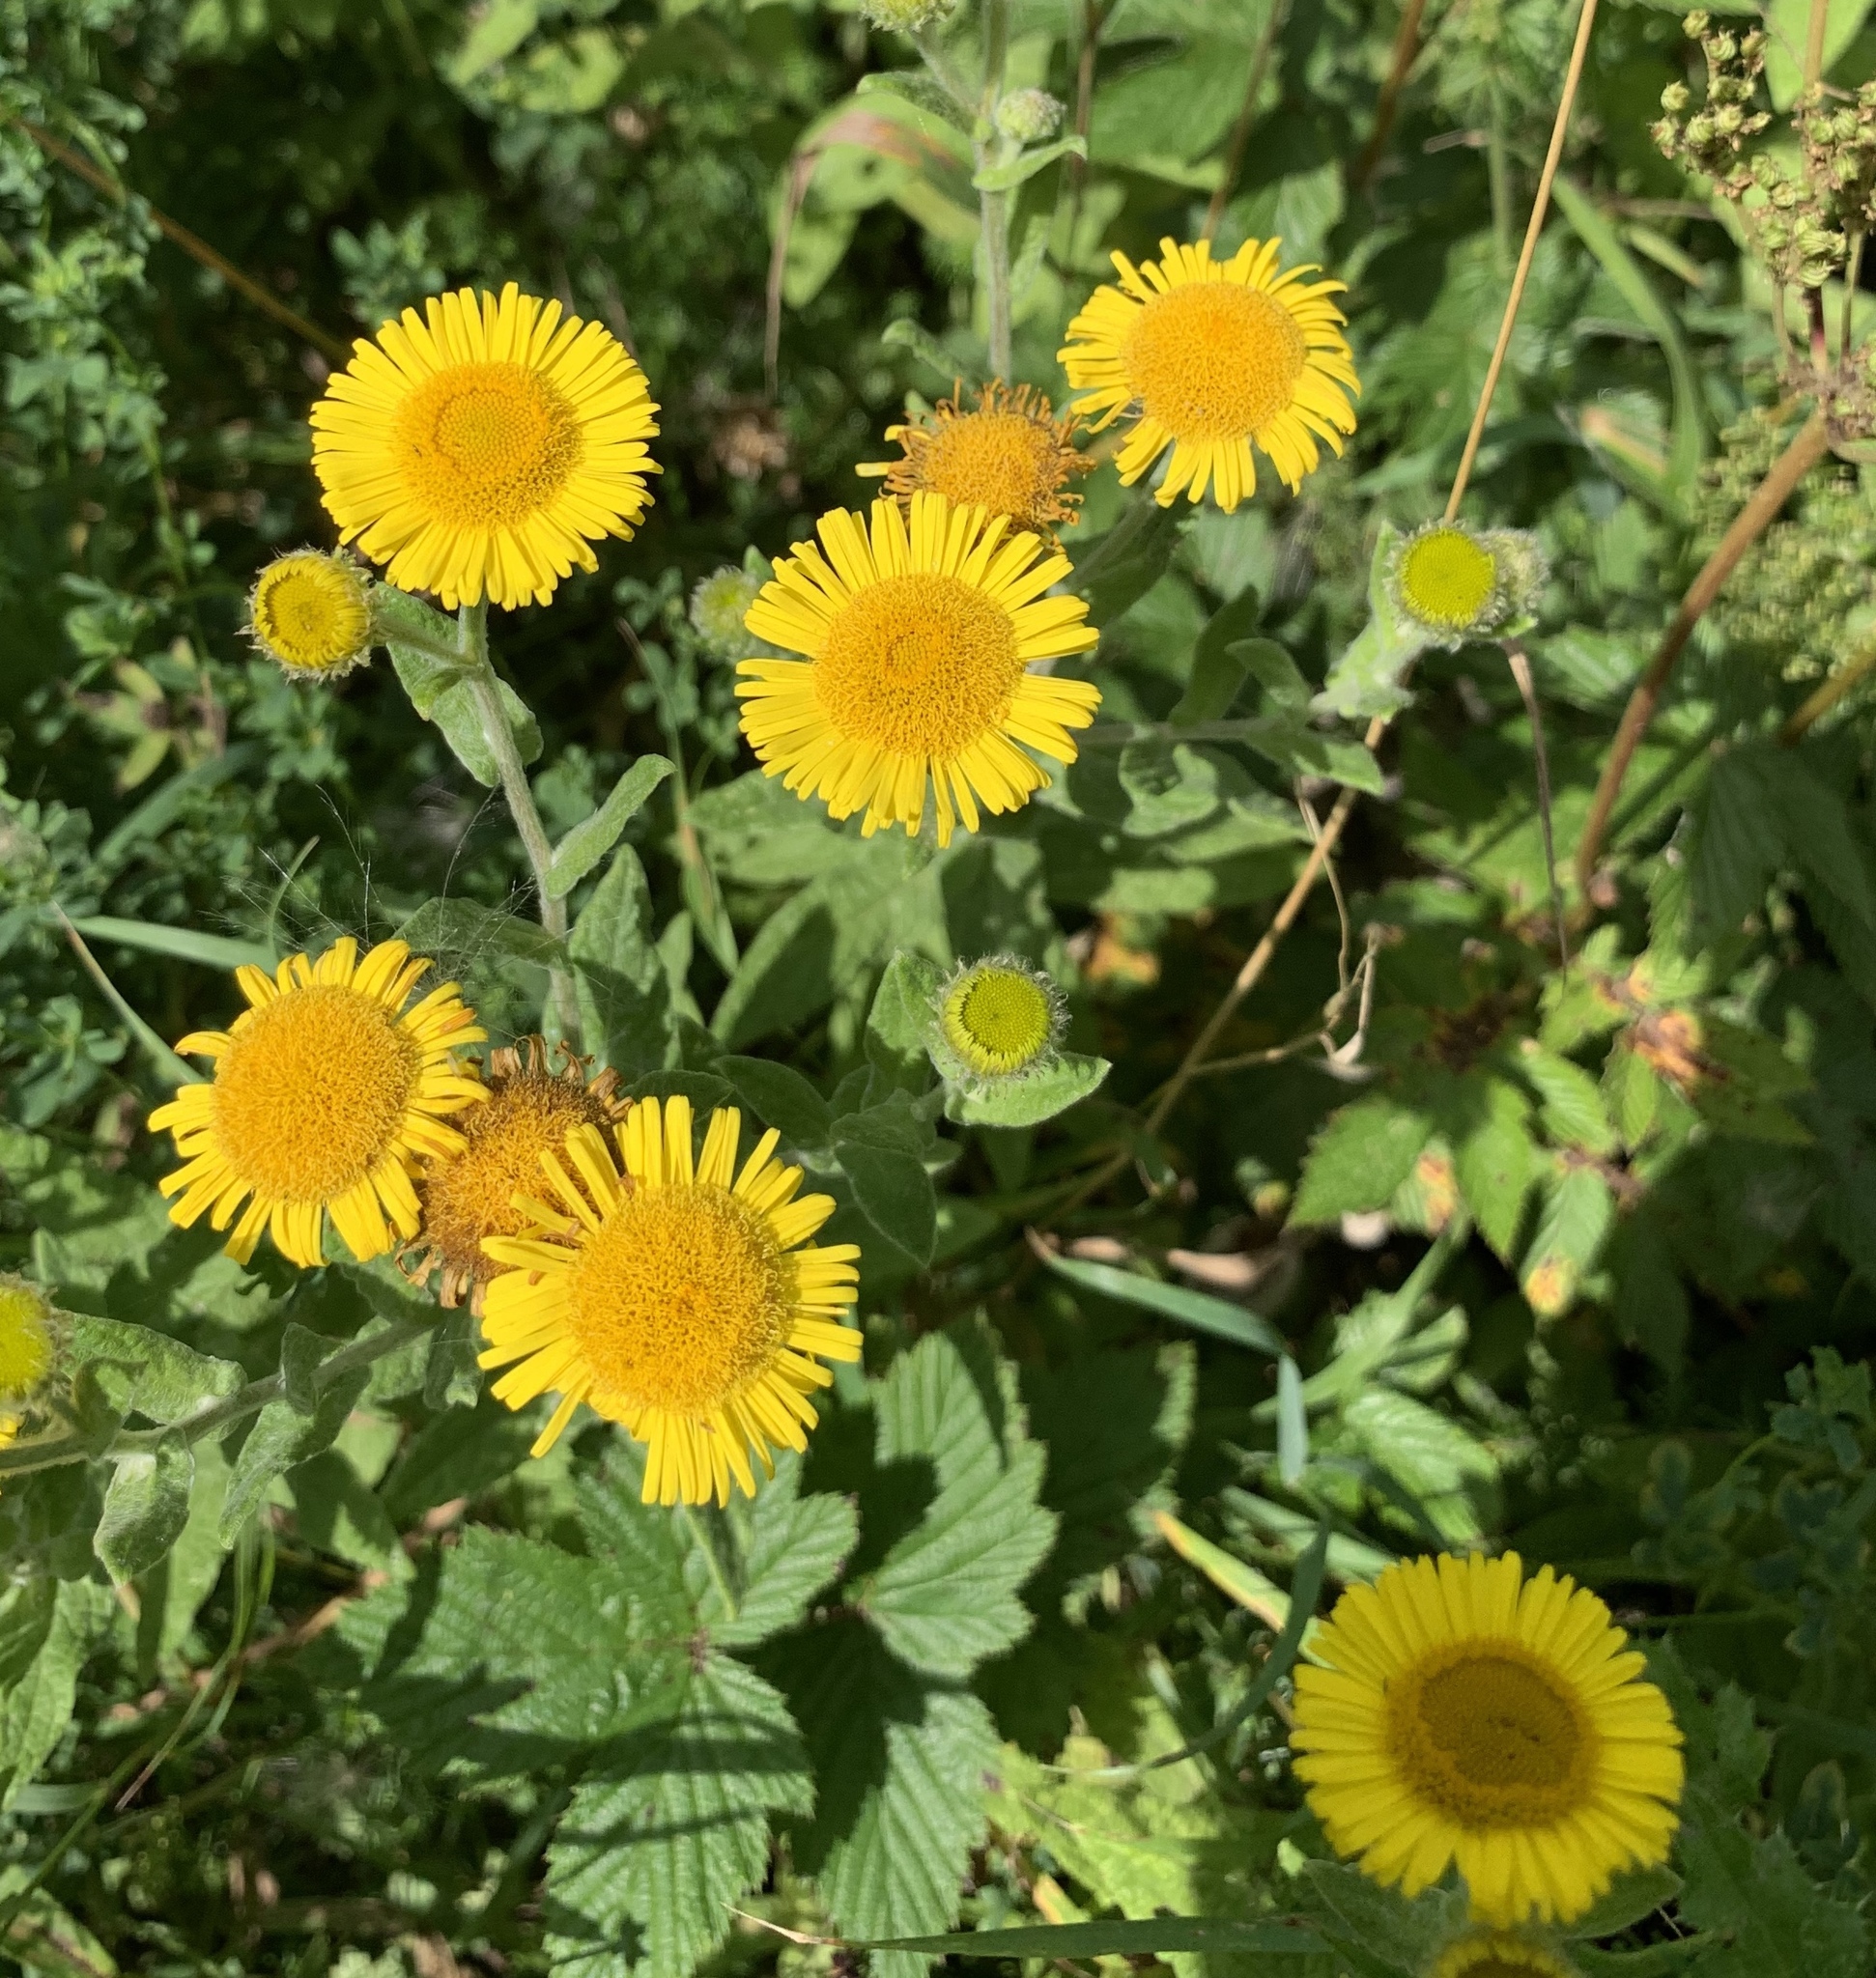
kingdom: Plantae
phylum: Tracheophyta
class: Magnoliopsida
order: Asterales
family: Asteraceae
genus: Pulicaria
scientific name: Pulicaria dysenterica
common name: Common fleabane
